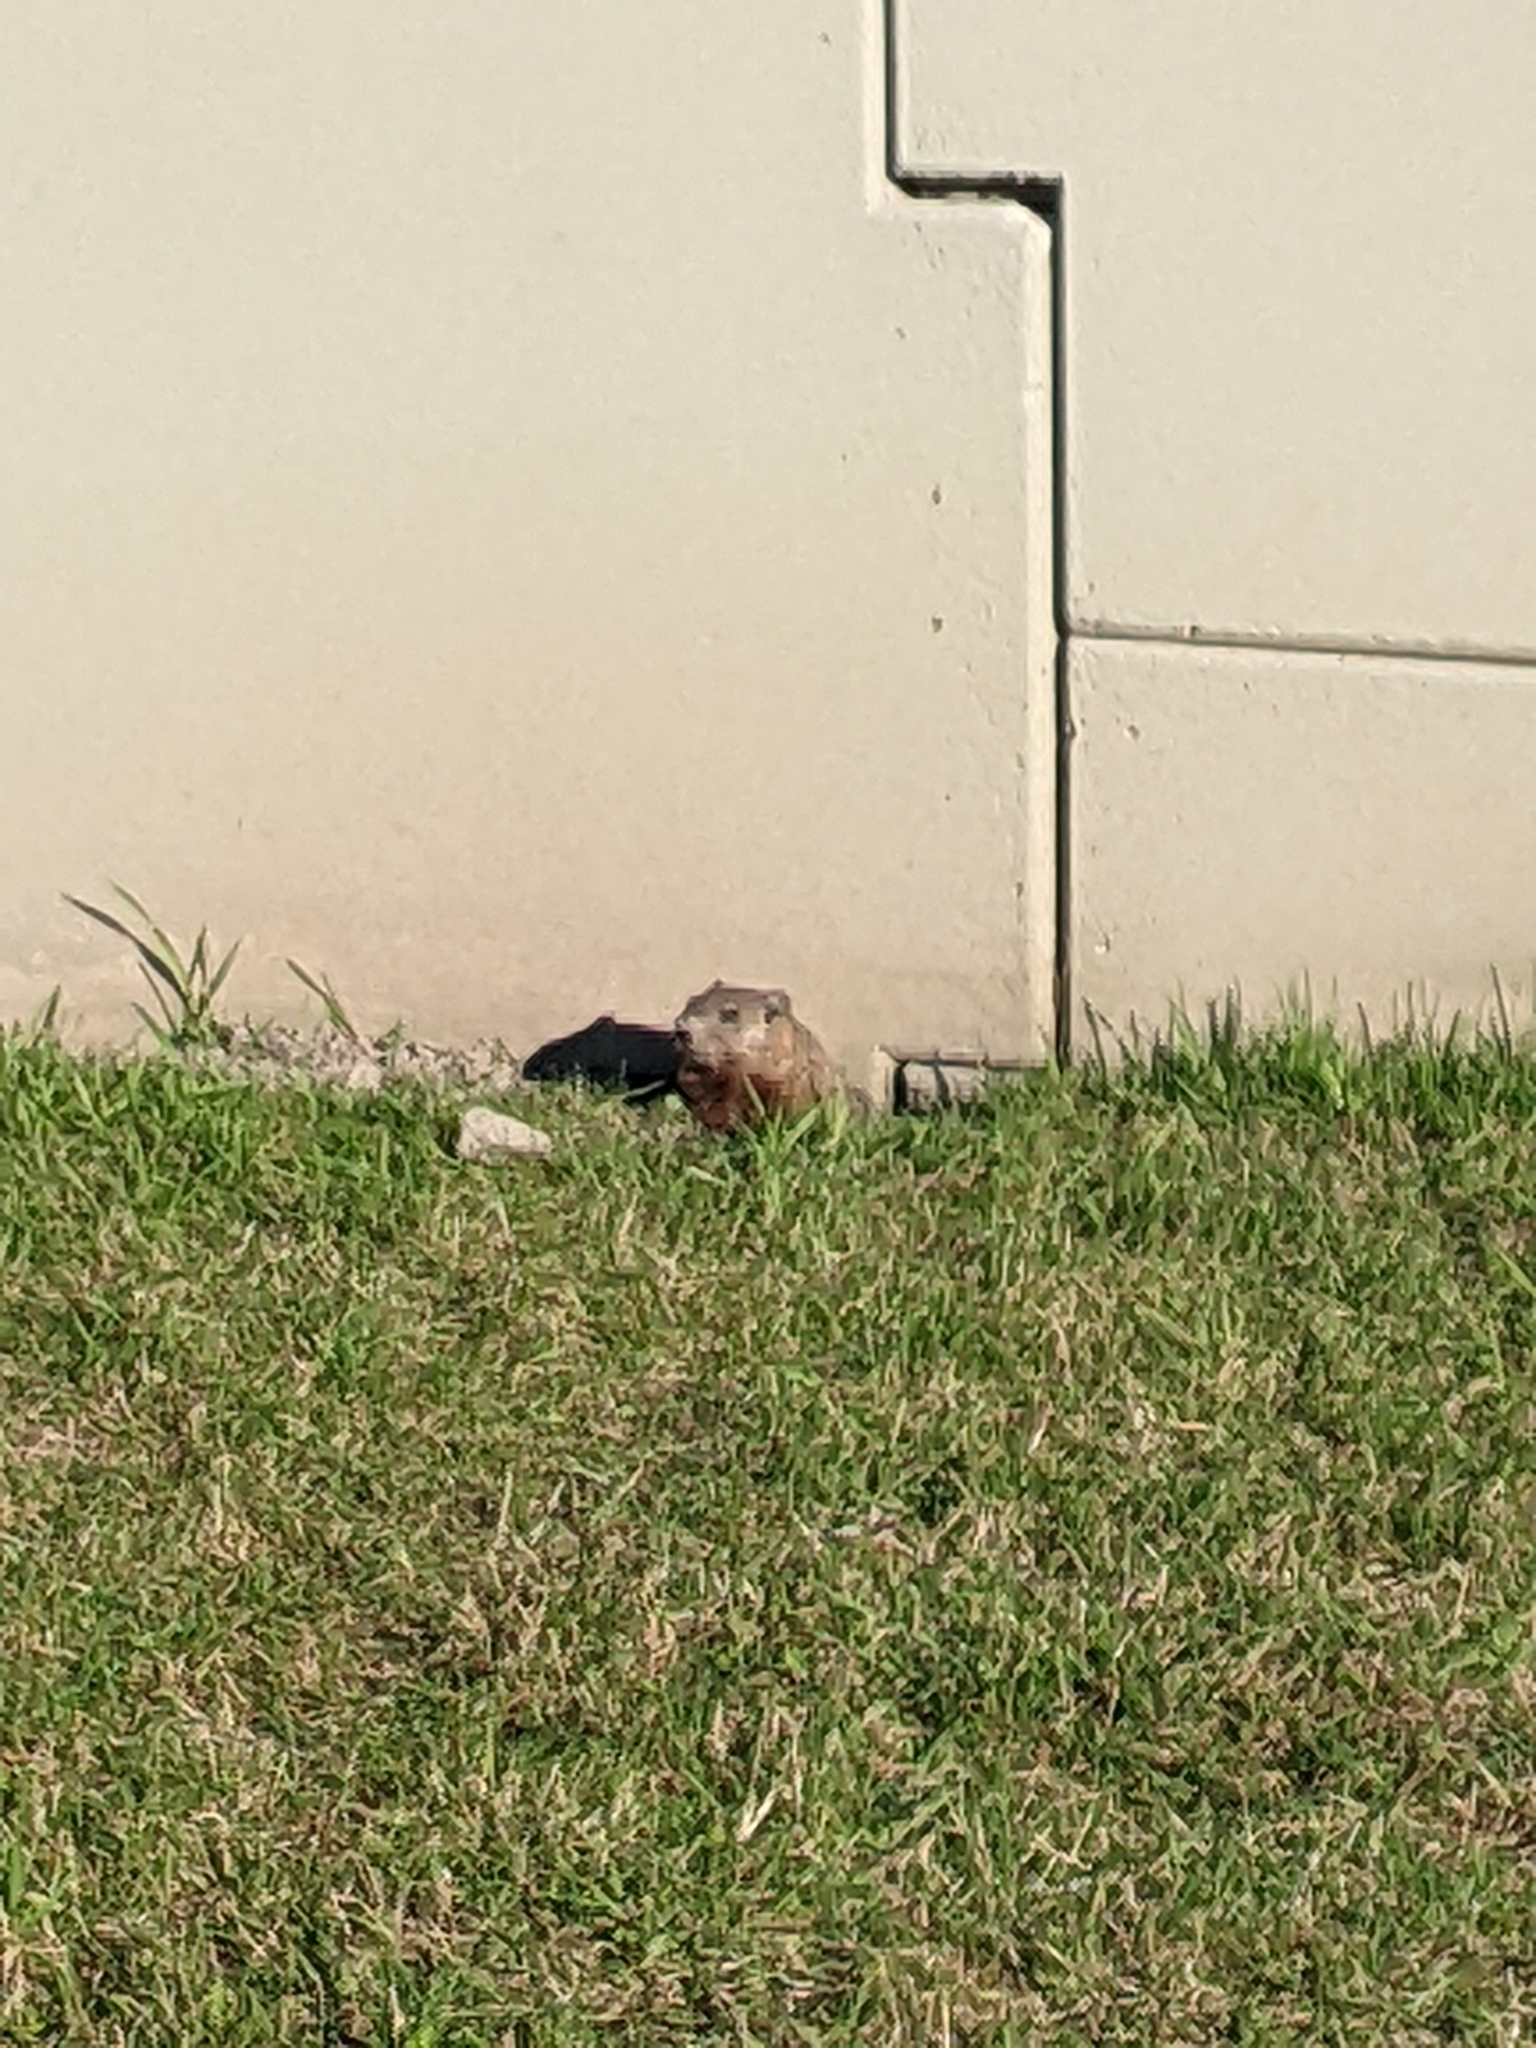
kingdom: Animalia
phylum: Chordata
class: Mammalia
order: Rodentia
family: Sciuridae
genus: Marmota
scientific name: Marmota monax
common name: Groundhog
